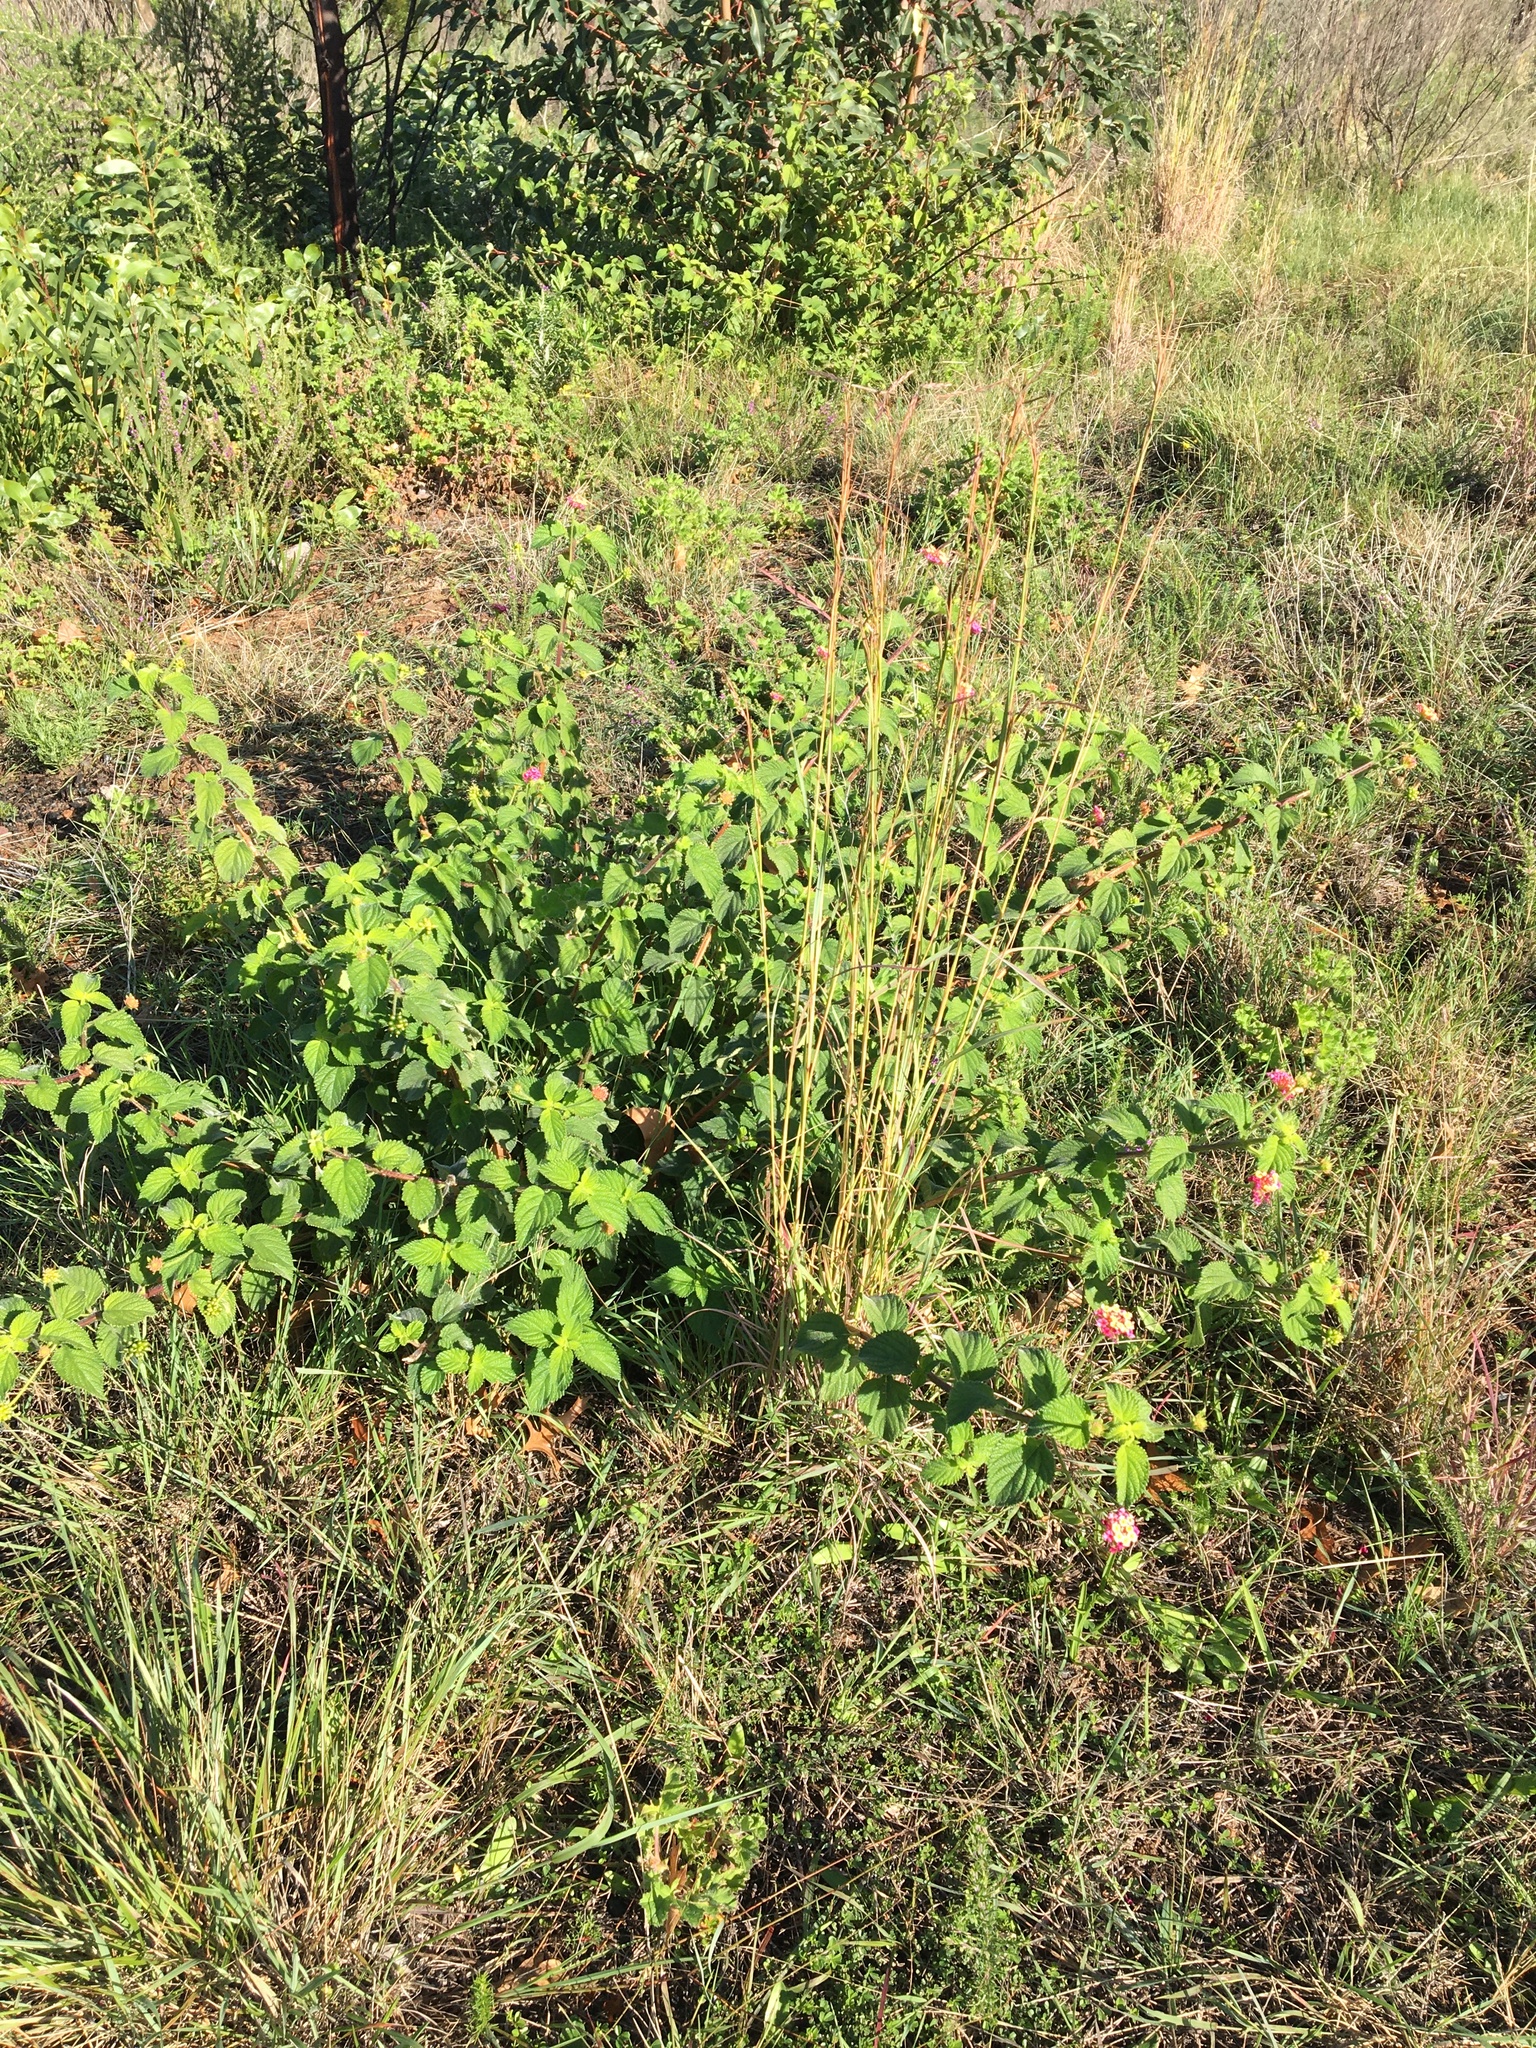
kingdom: Plantae
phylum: Tracheophyta
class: Magnoliopsida
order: Lamiales
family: Verbenaceae
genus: Lantana
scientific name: Lantana camara
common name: Lantana
